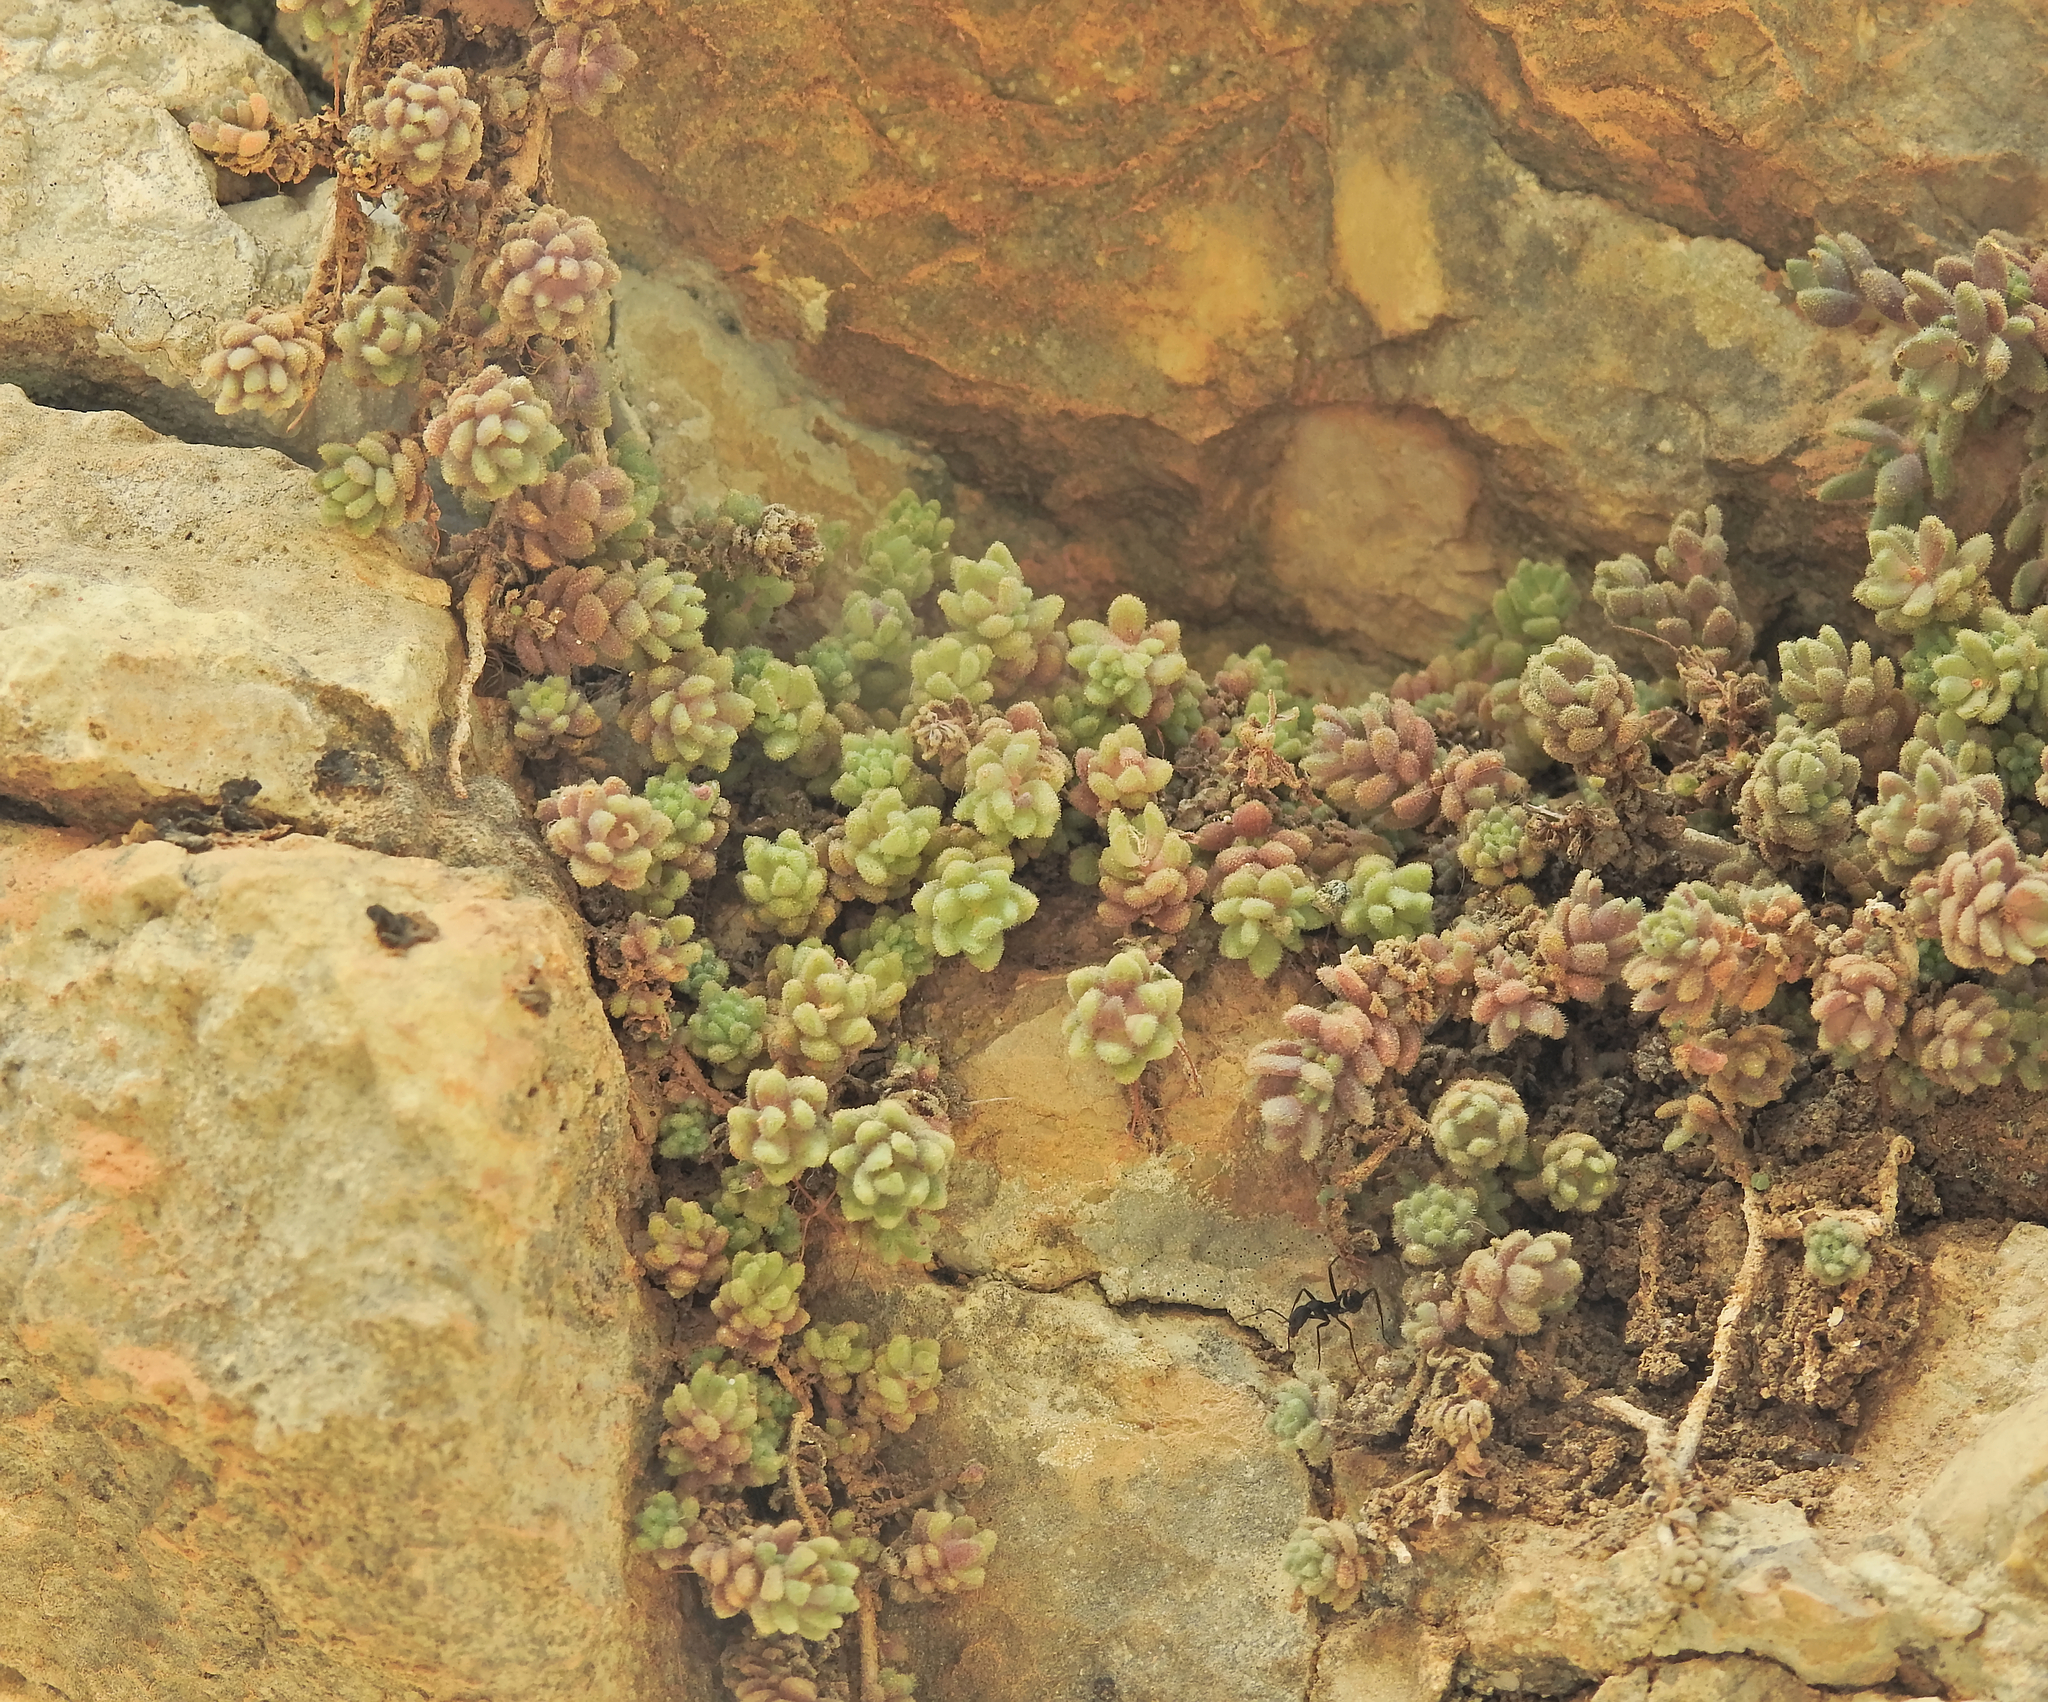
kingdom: Plantae
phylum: Tracheophyta
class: Magnoliopsida
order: Saxifragales
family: Crassulaceae
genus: Sedum
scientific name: Sedum dasyphyllum
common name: Thick-leaf stonecrop
